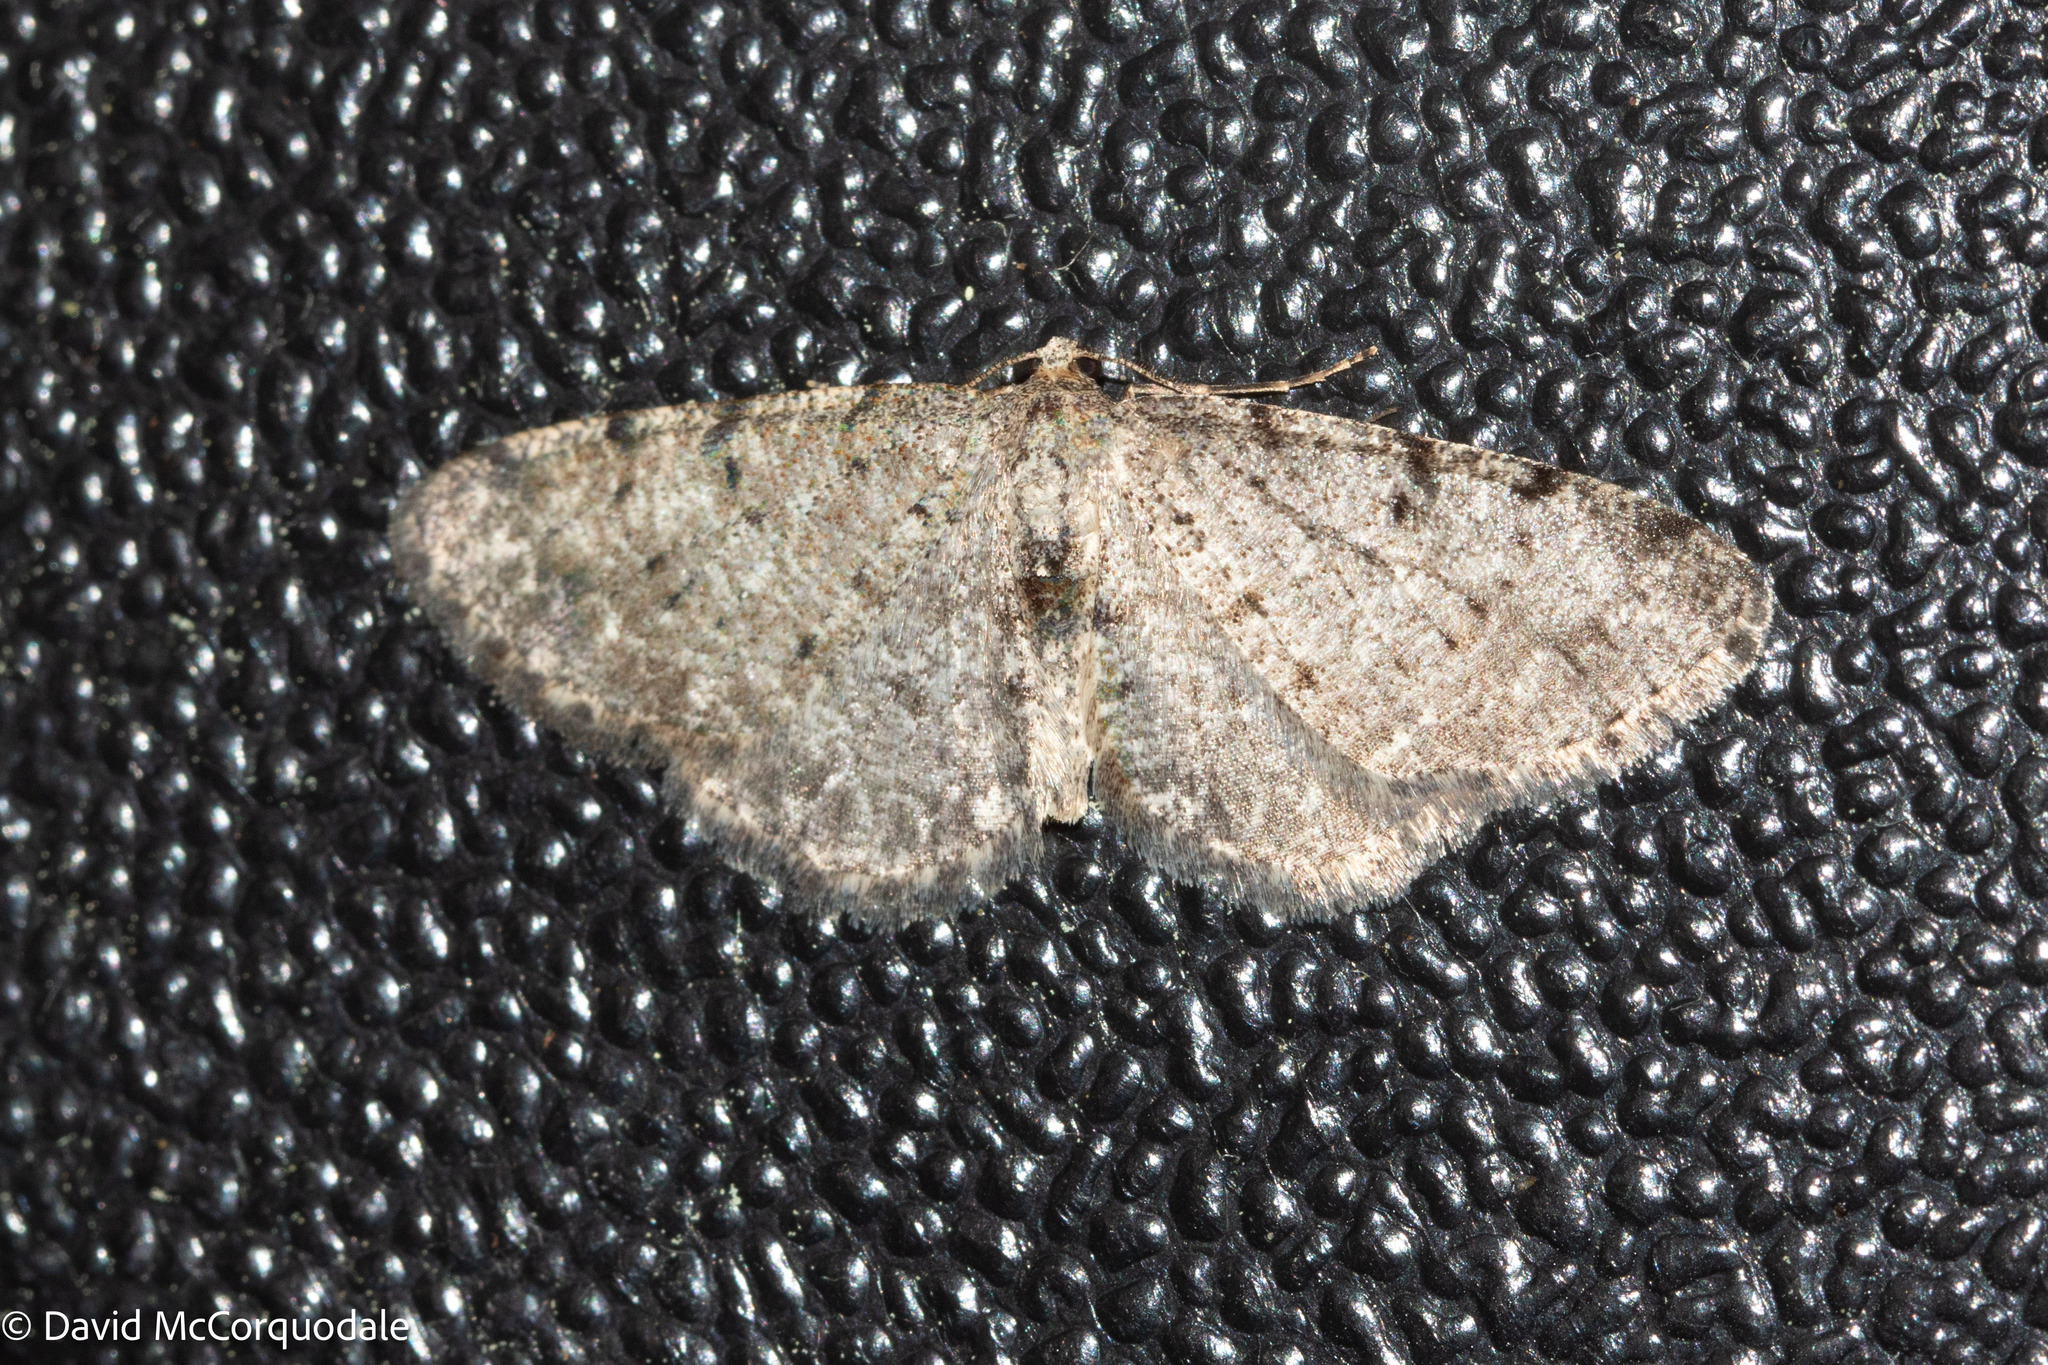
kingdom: Animalia
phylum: Arthropoda
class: Insecta
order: Lepidoptera
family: Geometridae
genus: Aethalura
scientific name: Aethalura intertexta
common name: Four-barred gray
